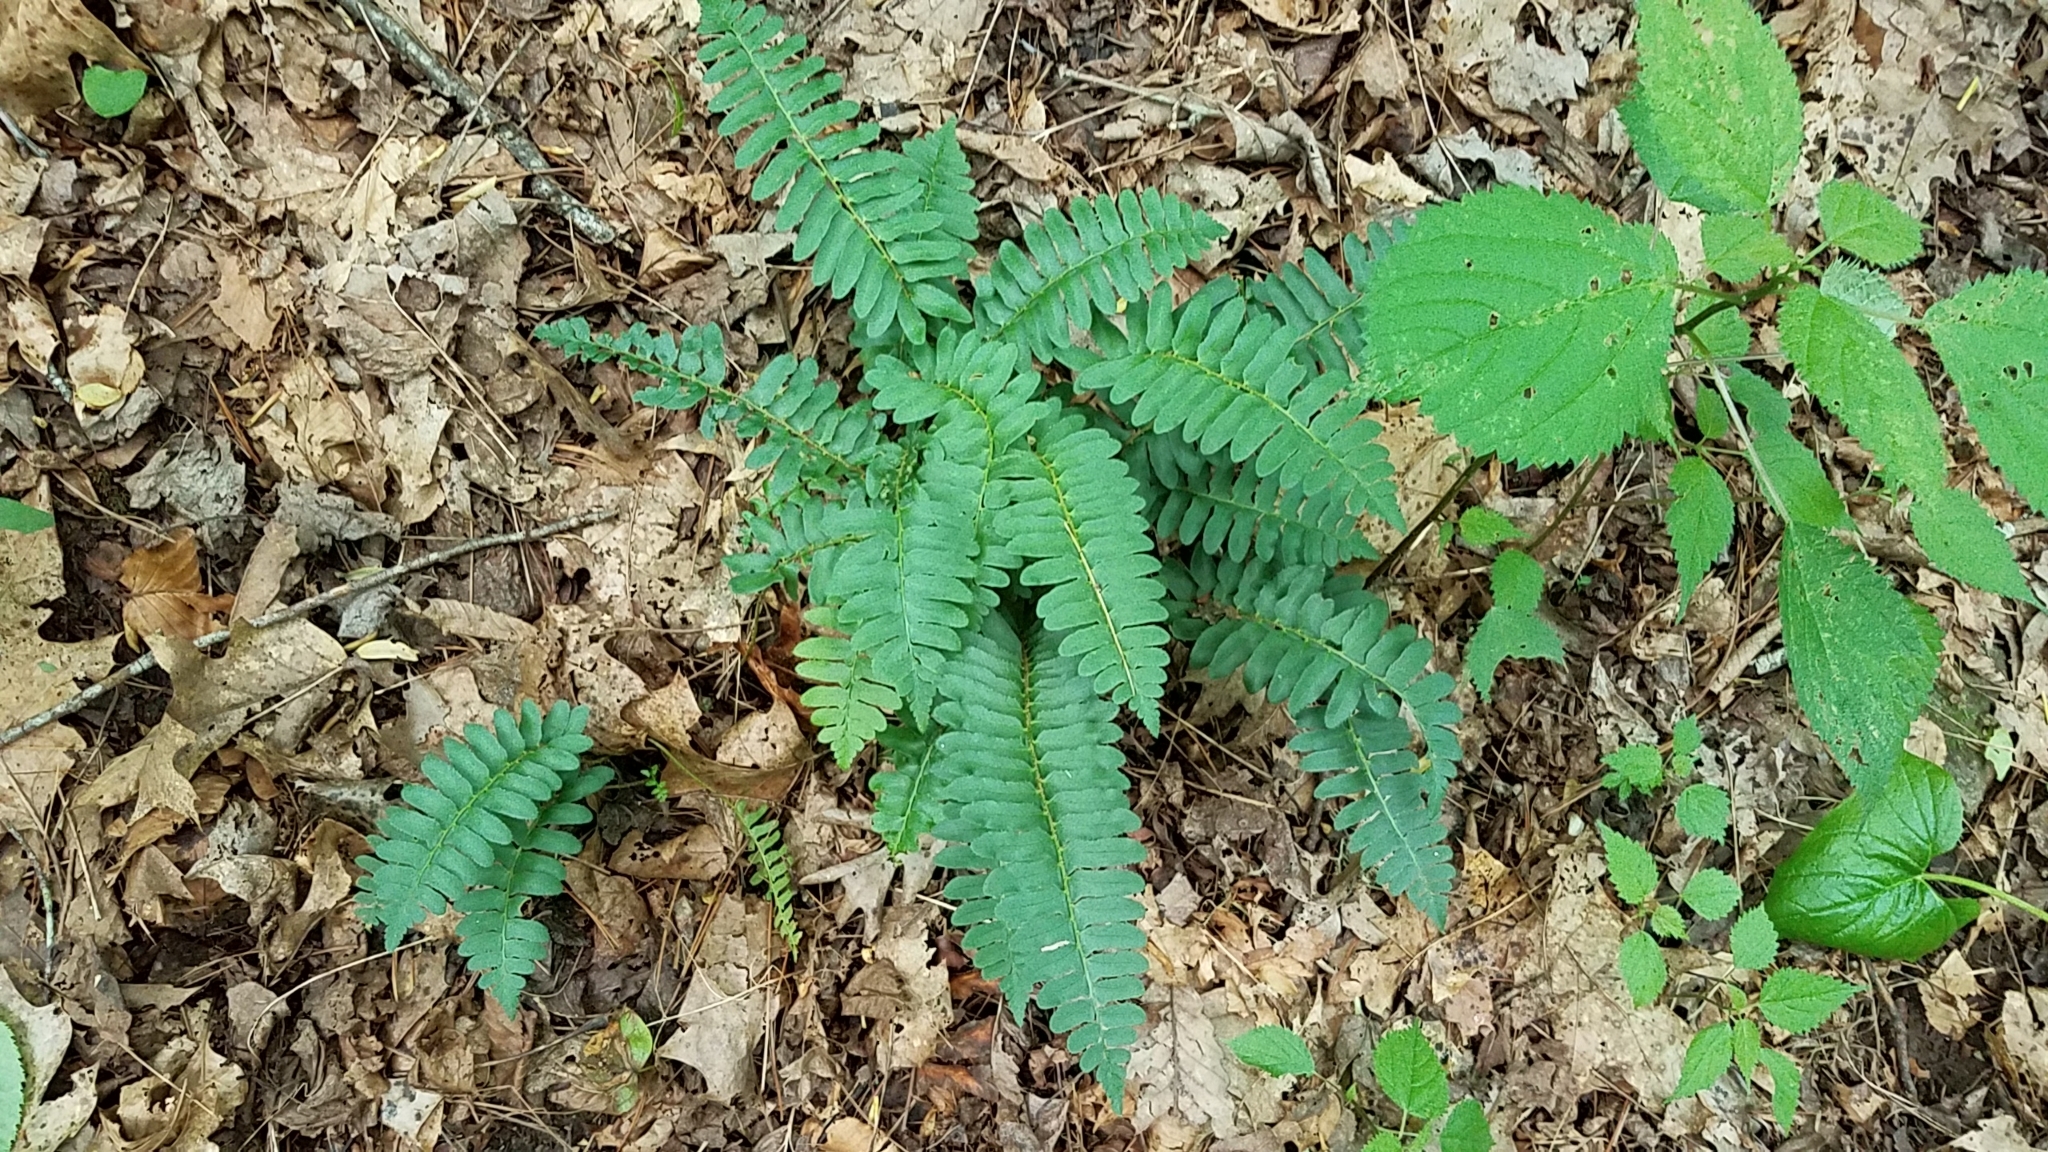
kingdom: Plantae
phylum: Tracheophyta
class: Polypodiopsida
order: Polypodiales
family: Dryopteridaceae
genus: Polystichum
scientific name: Polystichum acrostichoides
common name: Christmas fern
